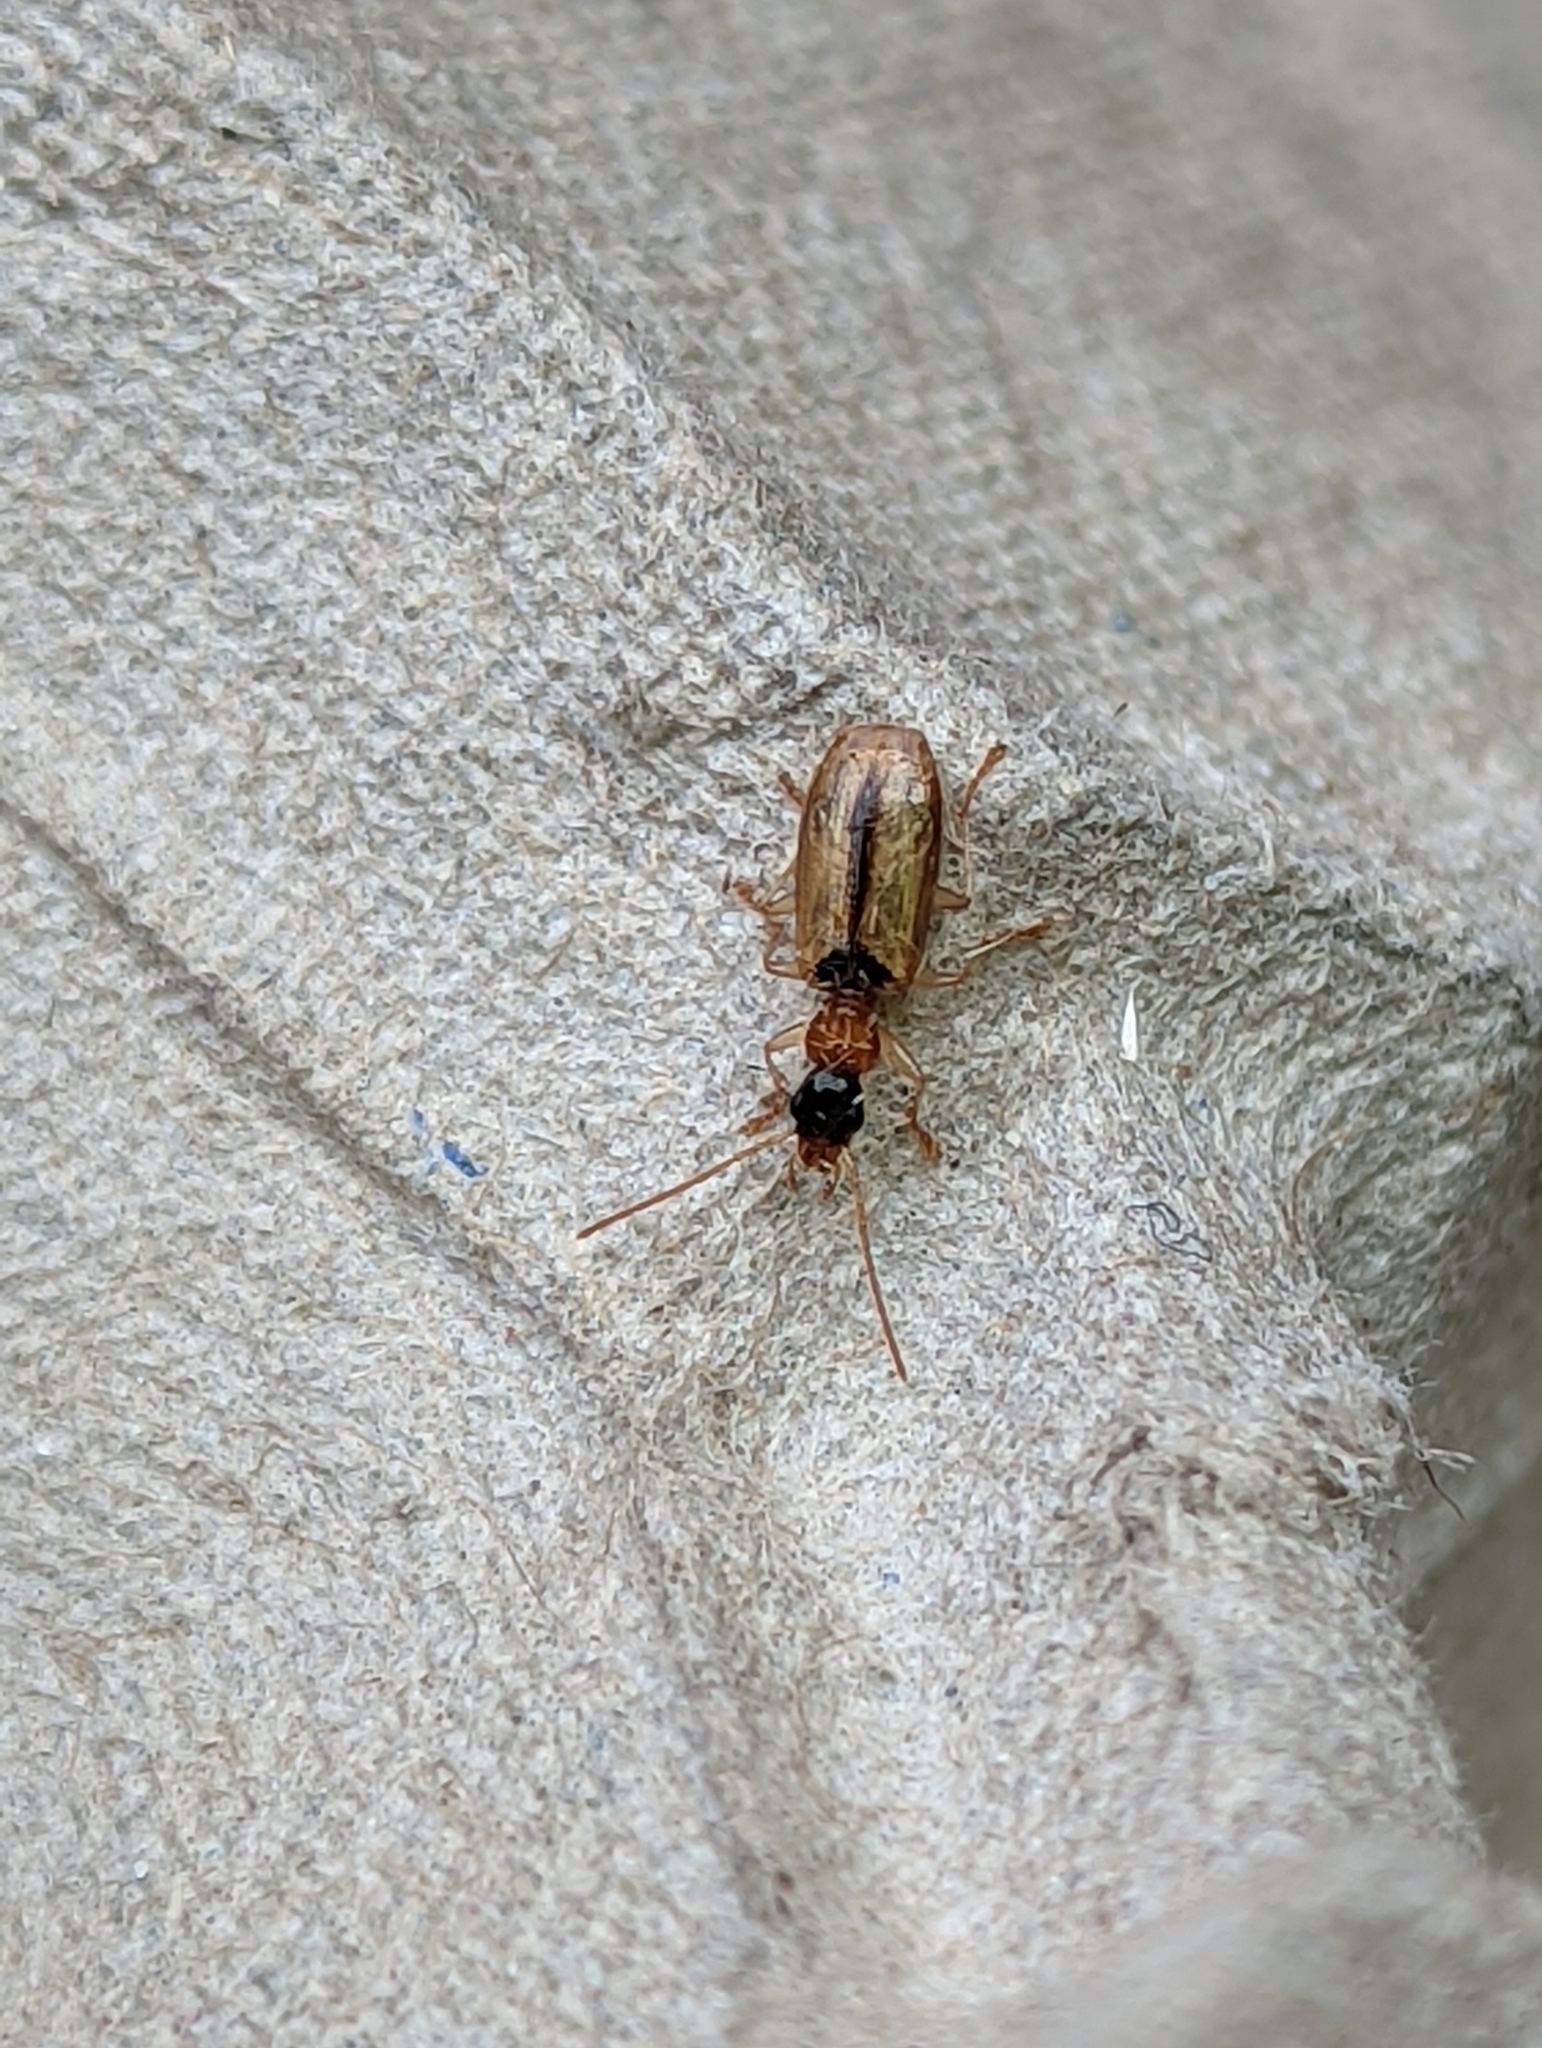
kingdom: Animalia
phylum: Arthropoda
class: Insecta
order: Coleoptera
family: Carabidae
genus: Demetrias
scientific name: Demetrias atricapillus
